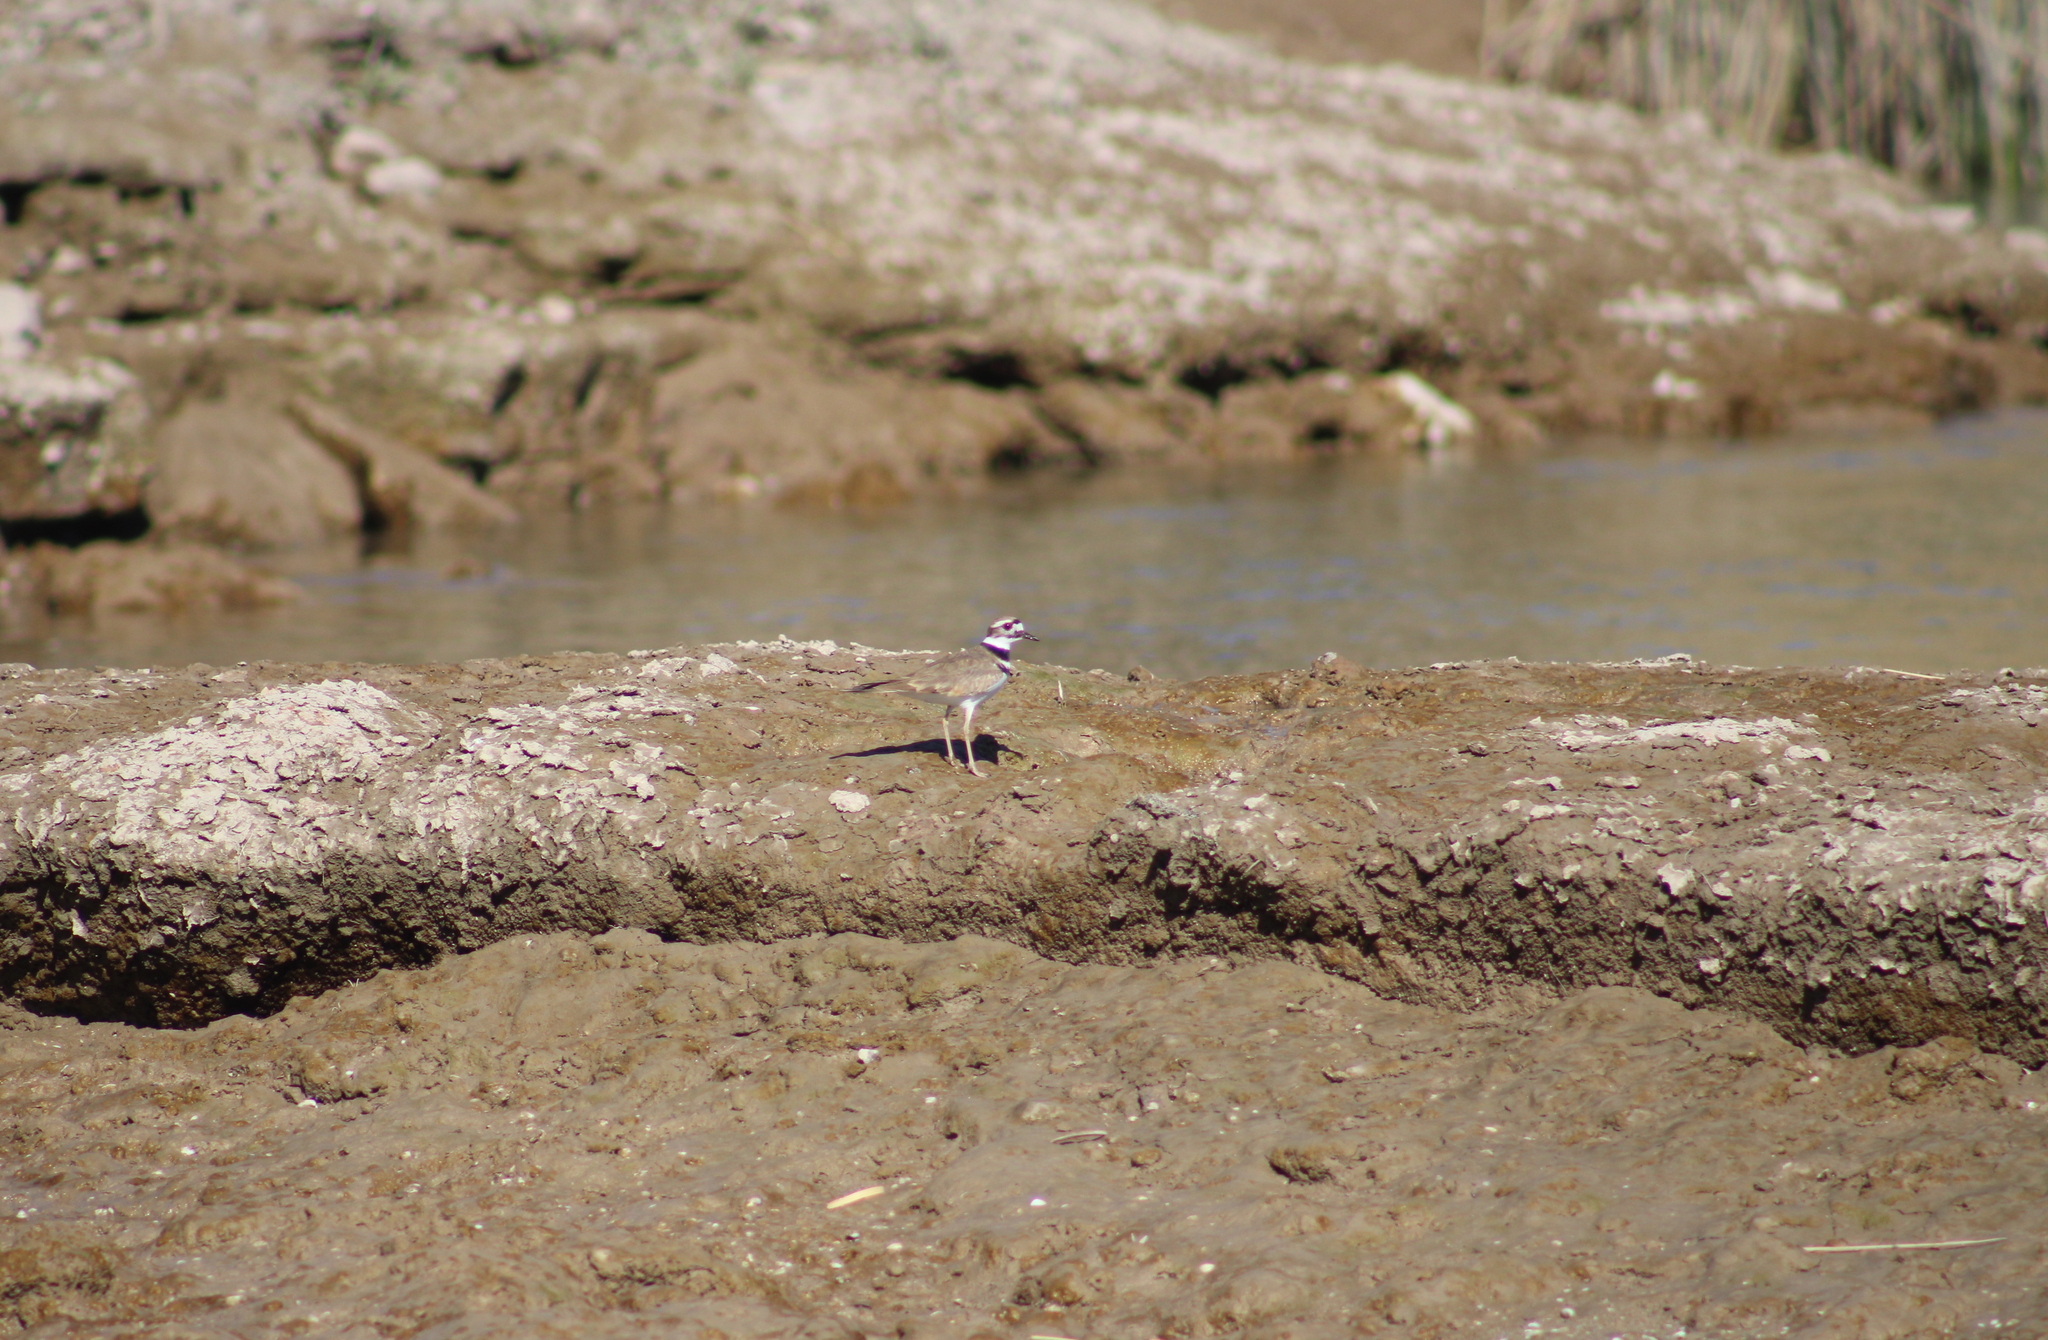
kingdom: Animalia
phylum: Chordata
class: Aves
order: Charadriiformes
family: Charadriidae
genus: Charadrius
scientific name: Charadrius vociferus
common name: Killdeer
